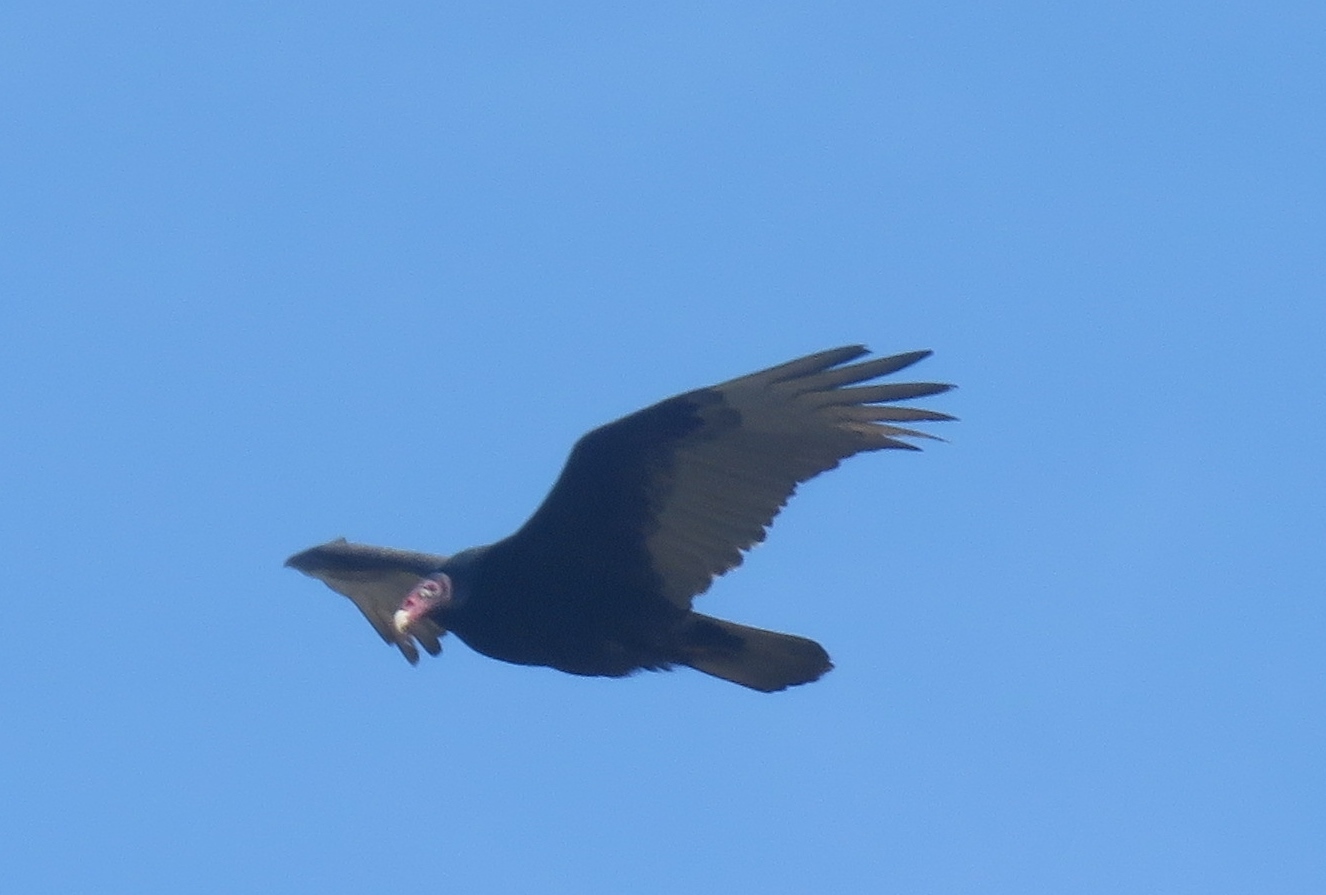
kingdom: Animalia
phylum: Chordata
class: Aves
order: Accipitriformes
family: Cathartidae
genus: Cathartes
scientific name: Cathartes aura
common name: Turkey vulture
